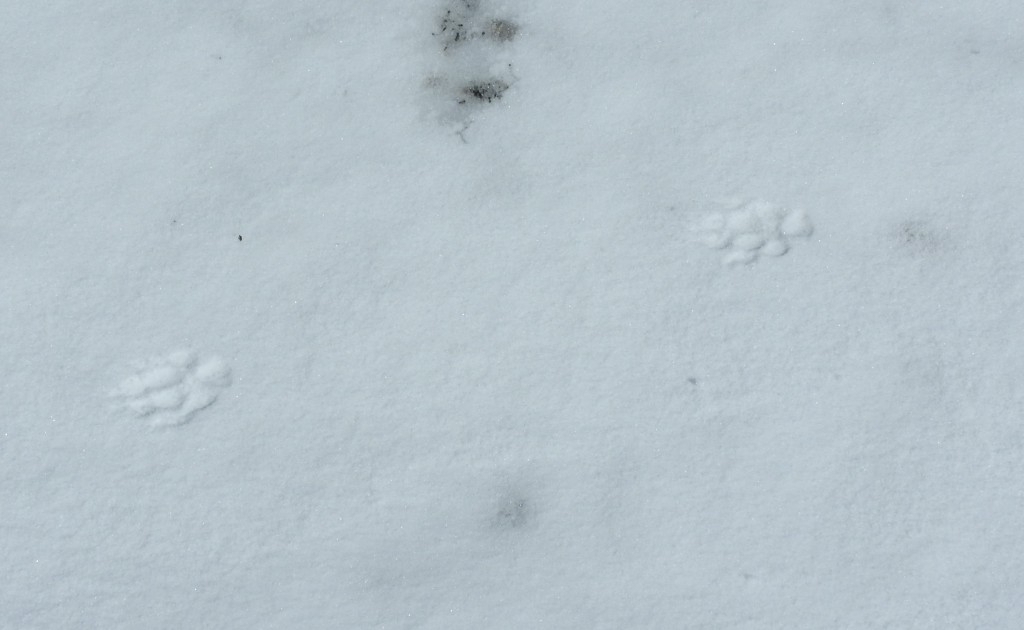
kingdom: Animalia
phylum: Chordata
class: Mammalia
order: Carnivora
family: Canidae
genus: Canis
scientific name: Canis latrans
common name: Coyote
